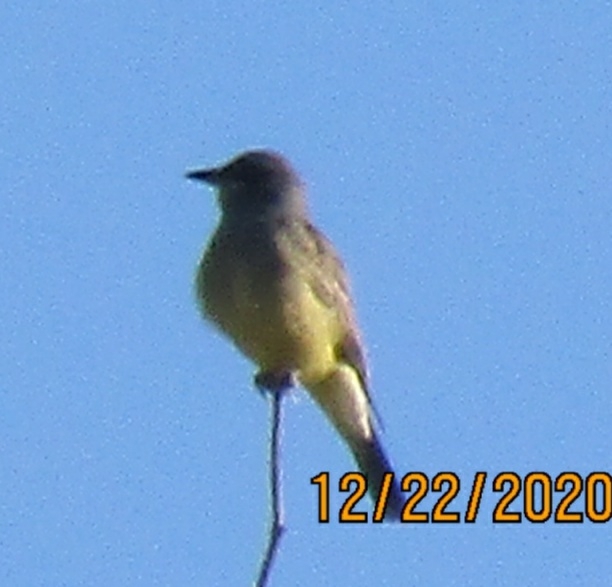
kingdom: Animalia
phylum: Chordata
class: Aves
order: Passeriformes
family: Tyrannidae
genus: Tyrannus
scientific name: Tyrannus vociferans
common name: Cassin's kingbird
